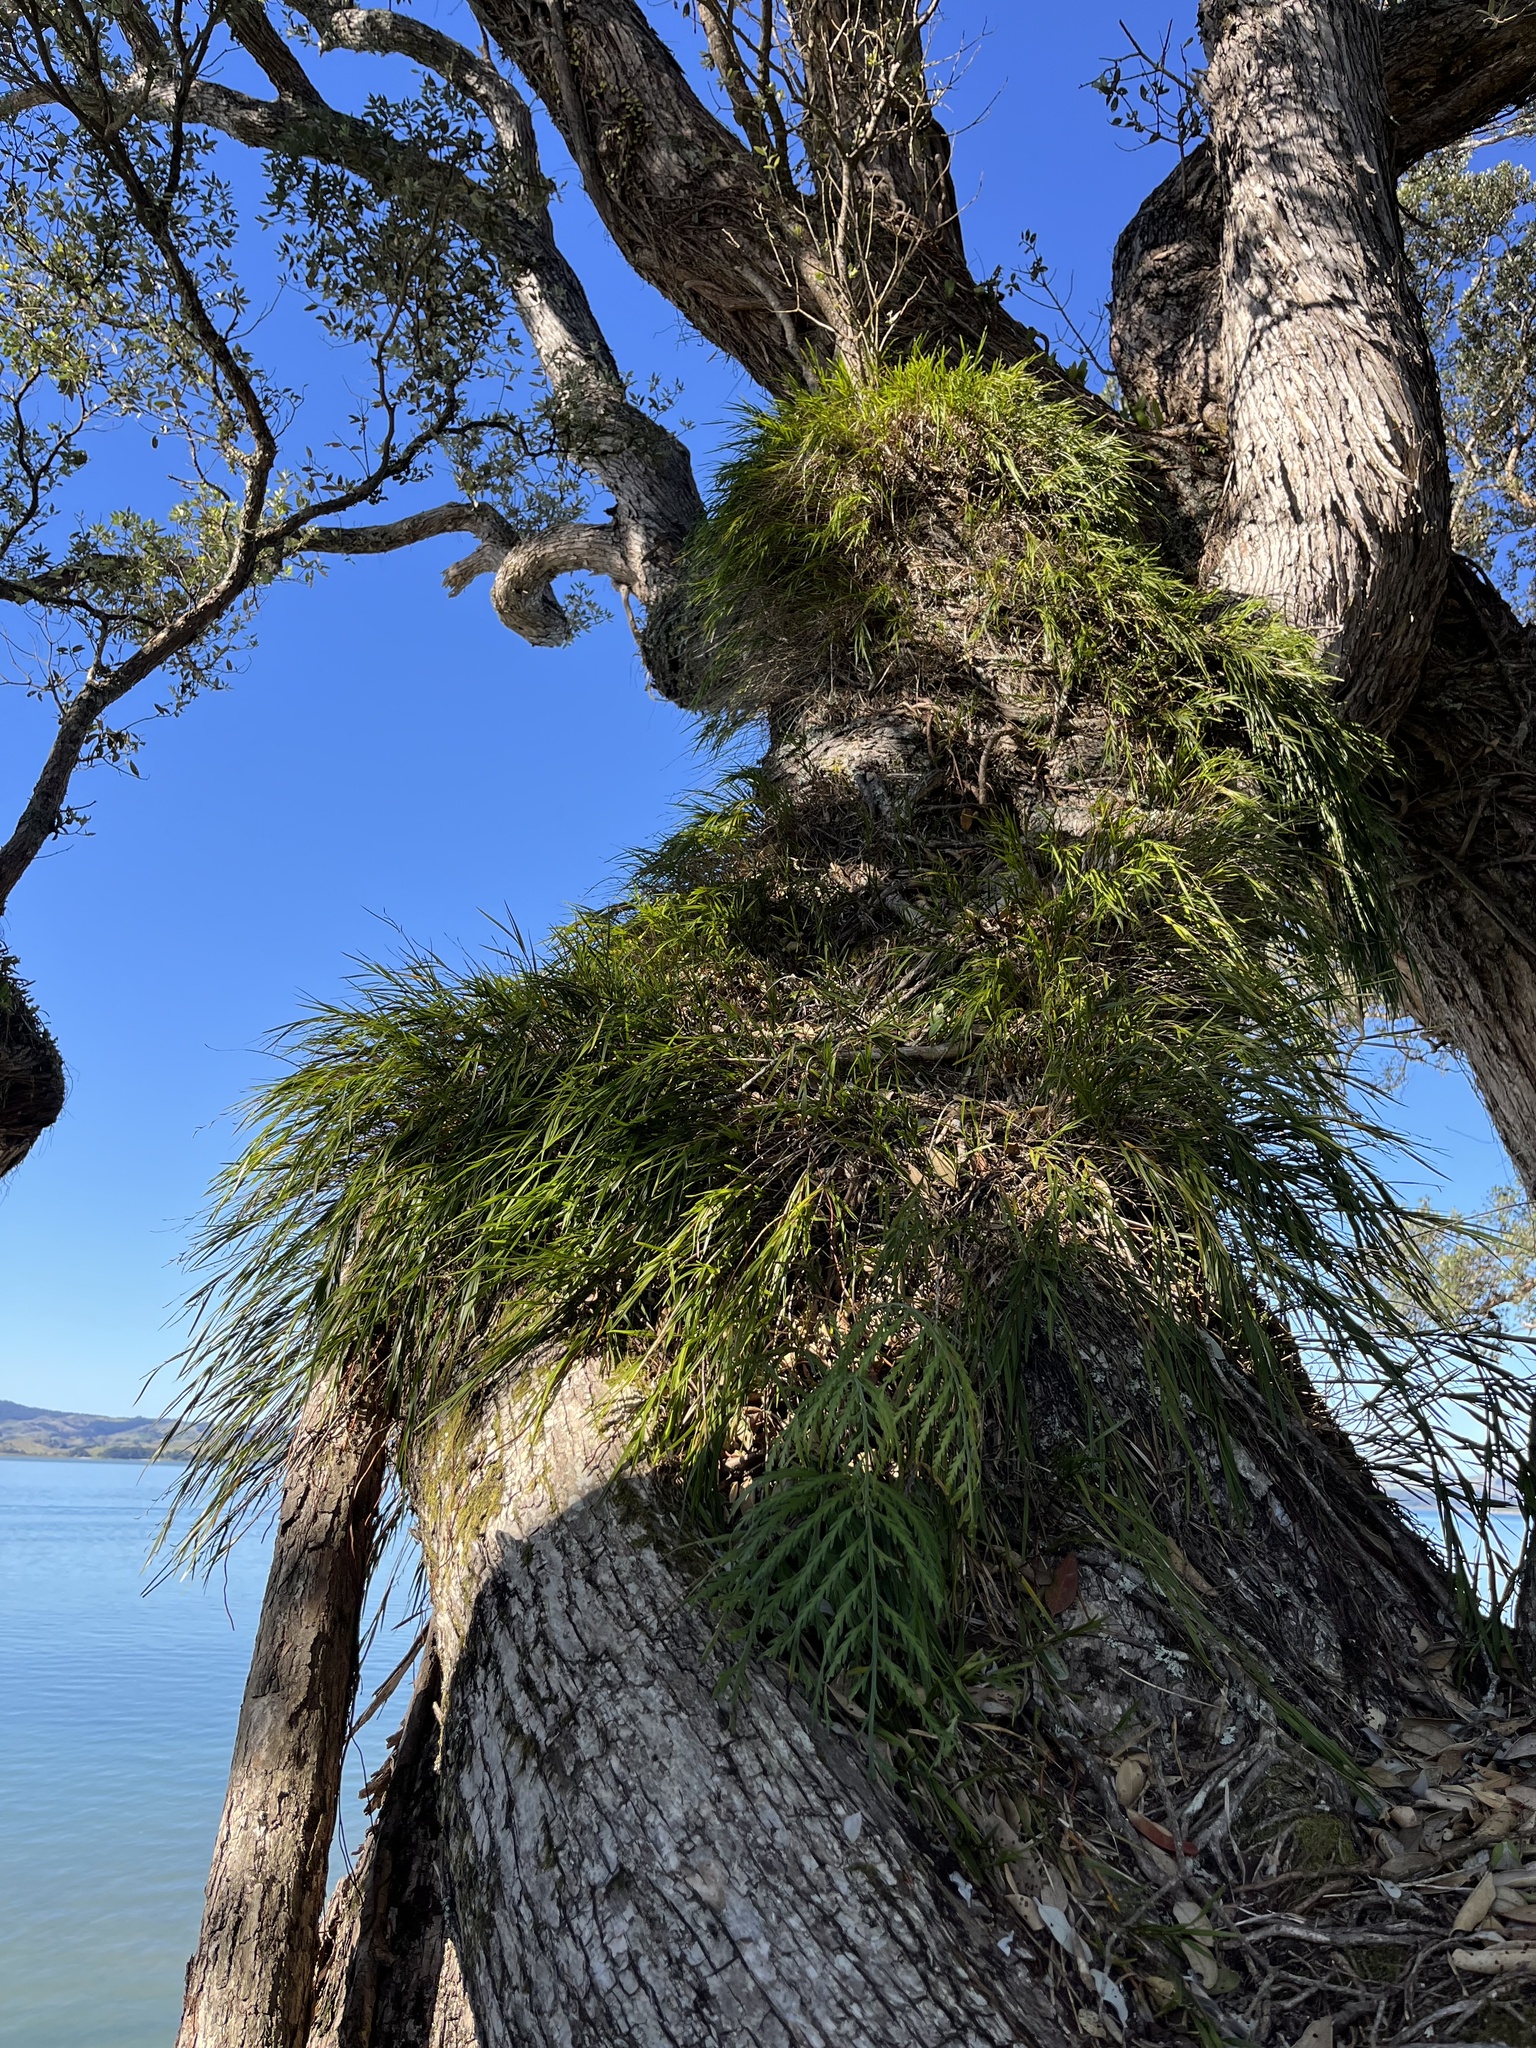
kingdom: Plantae
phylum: Tracheophyta
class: Liliopsida
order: Asparagales
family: Orchidaceae
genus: Earina
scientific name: Earina mucronata
